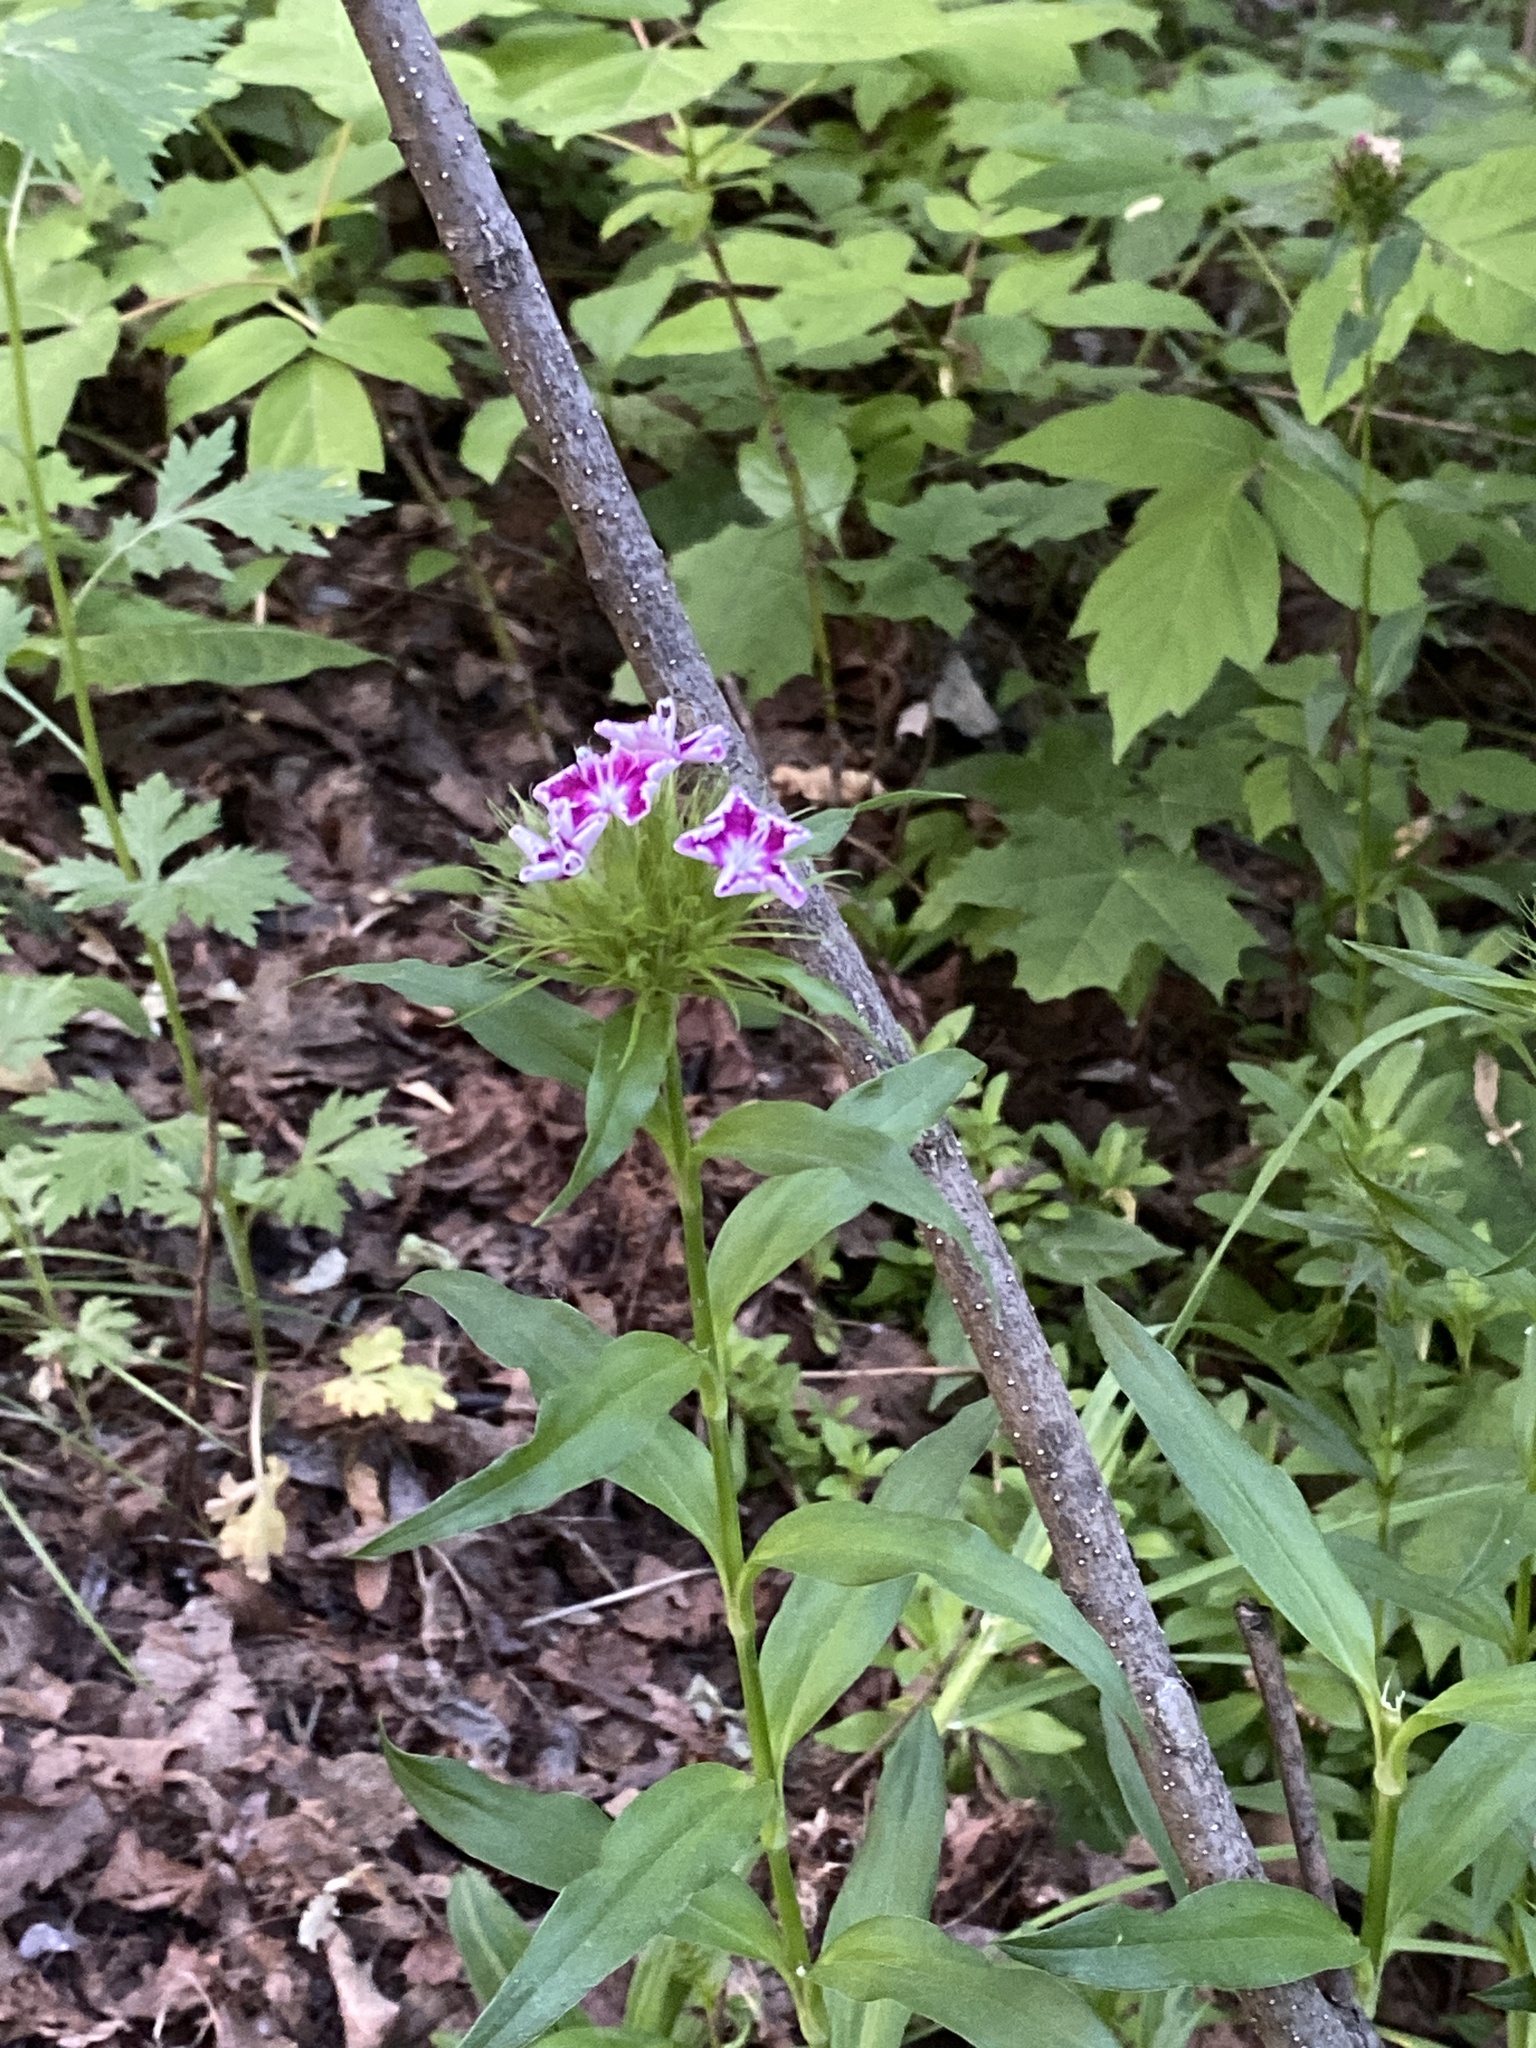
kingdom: Plantae
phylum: Tracheophyta
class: Magnoliopsida
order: Caryophyllales
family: Caryophyllaceae
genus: Dianthus
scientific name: Dianthus barbatus
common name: Sweet-william
